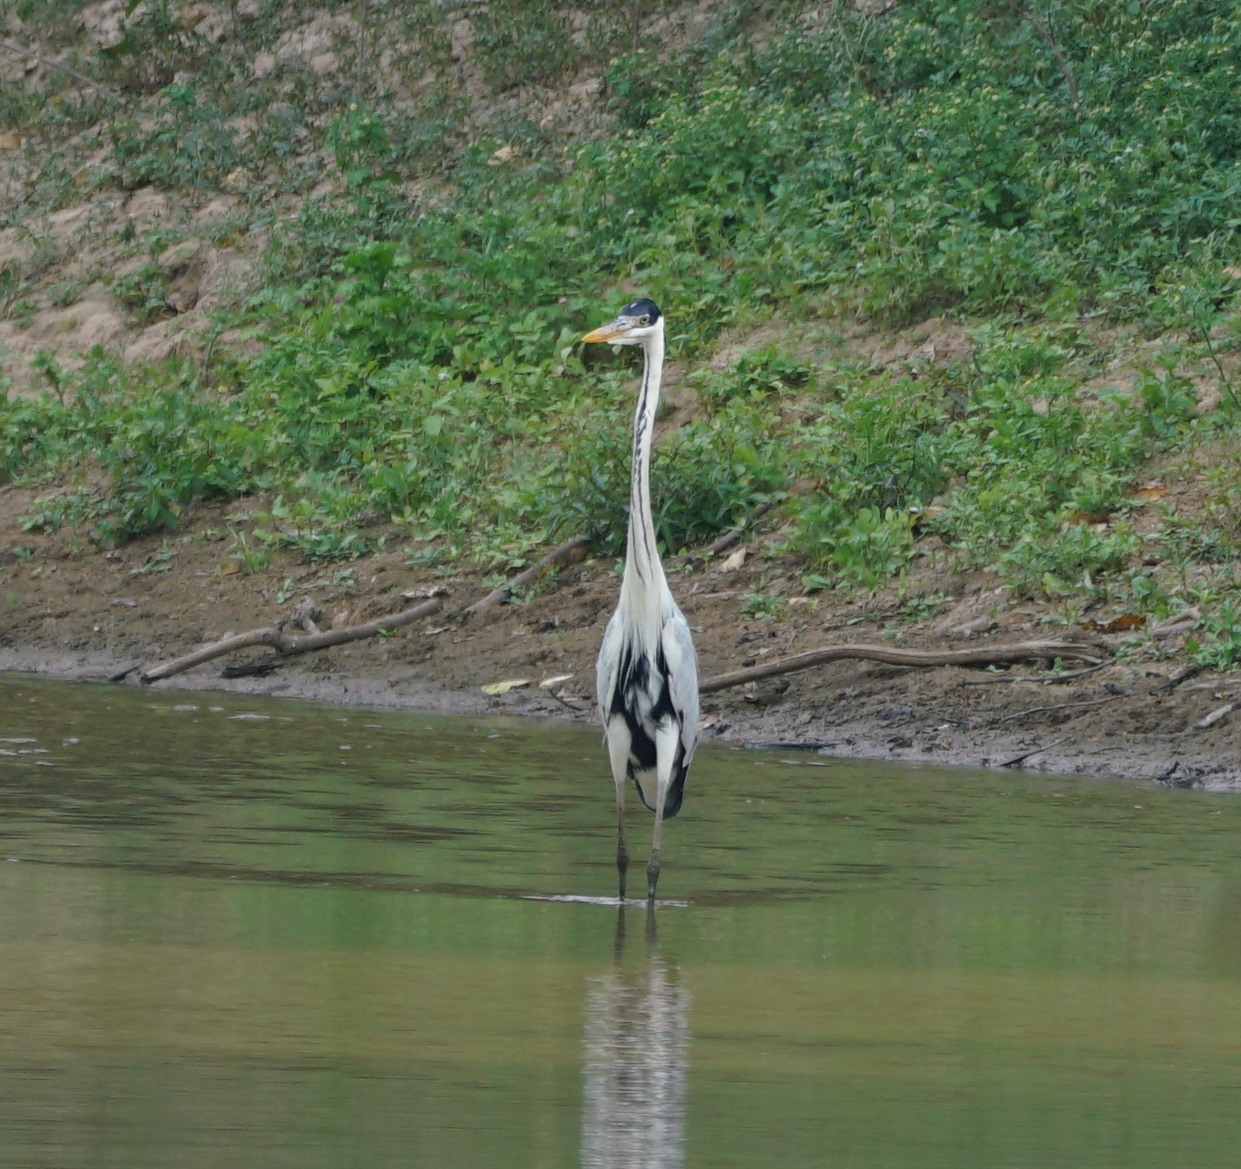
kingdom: Animalia
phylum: Chordata
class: Aves
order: Pelecaniformes
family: Ardeidae
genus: Ardea
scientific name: Ardea cocoi
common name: Cocoi heron
